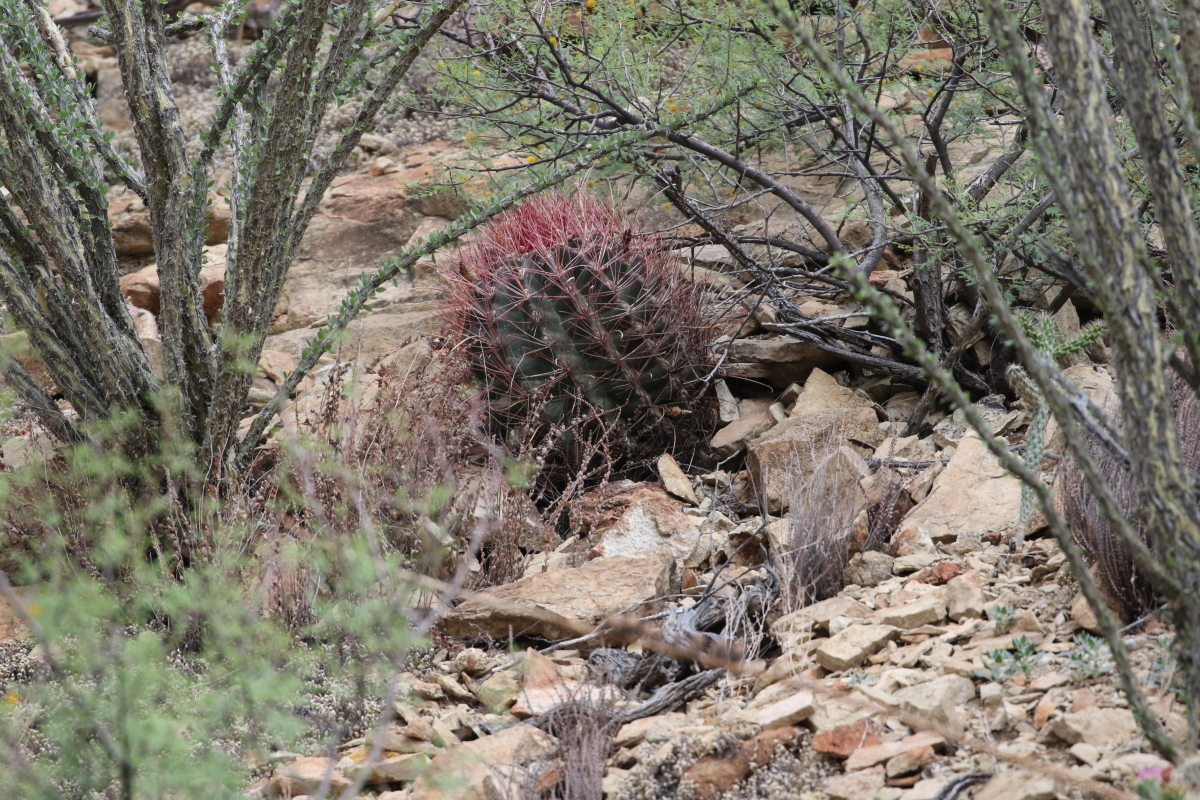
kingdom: Plantae
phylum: Tracheophyta
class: Magnoliopsida
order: Caryophyllales
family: Cactaceae
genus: Bisnaga
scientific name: Bisnaga hamatacantha
